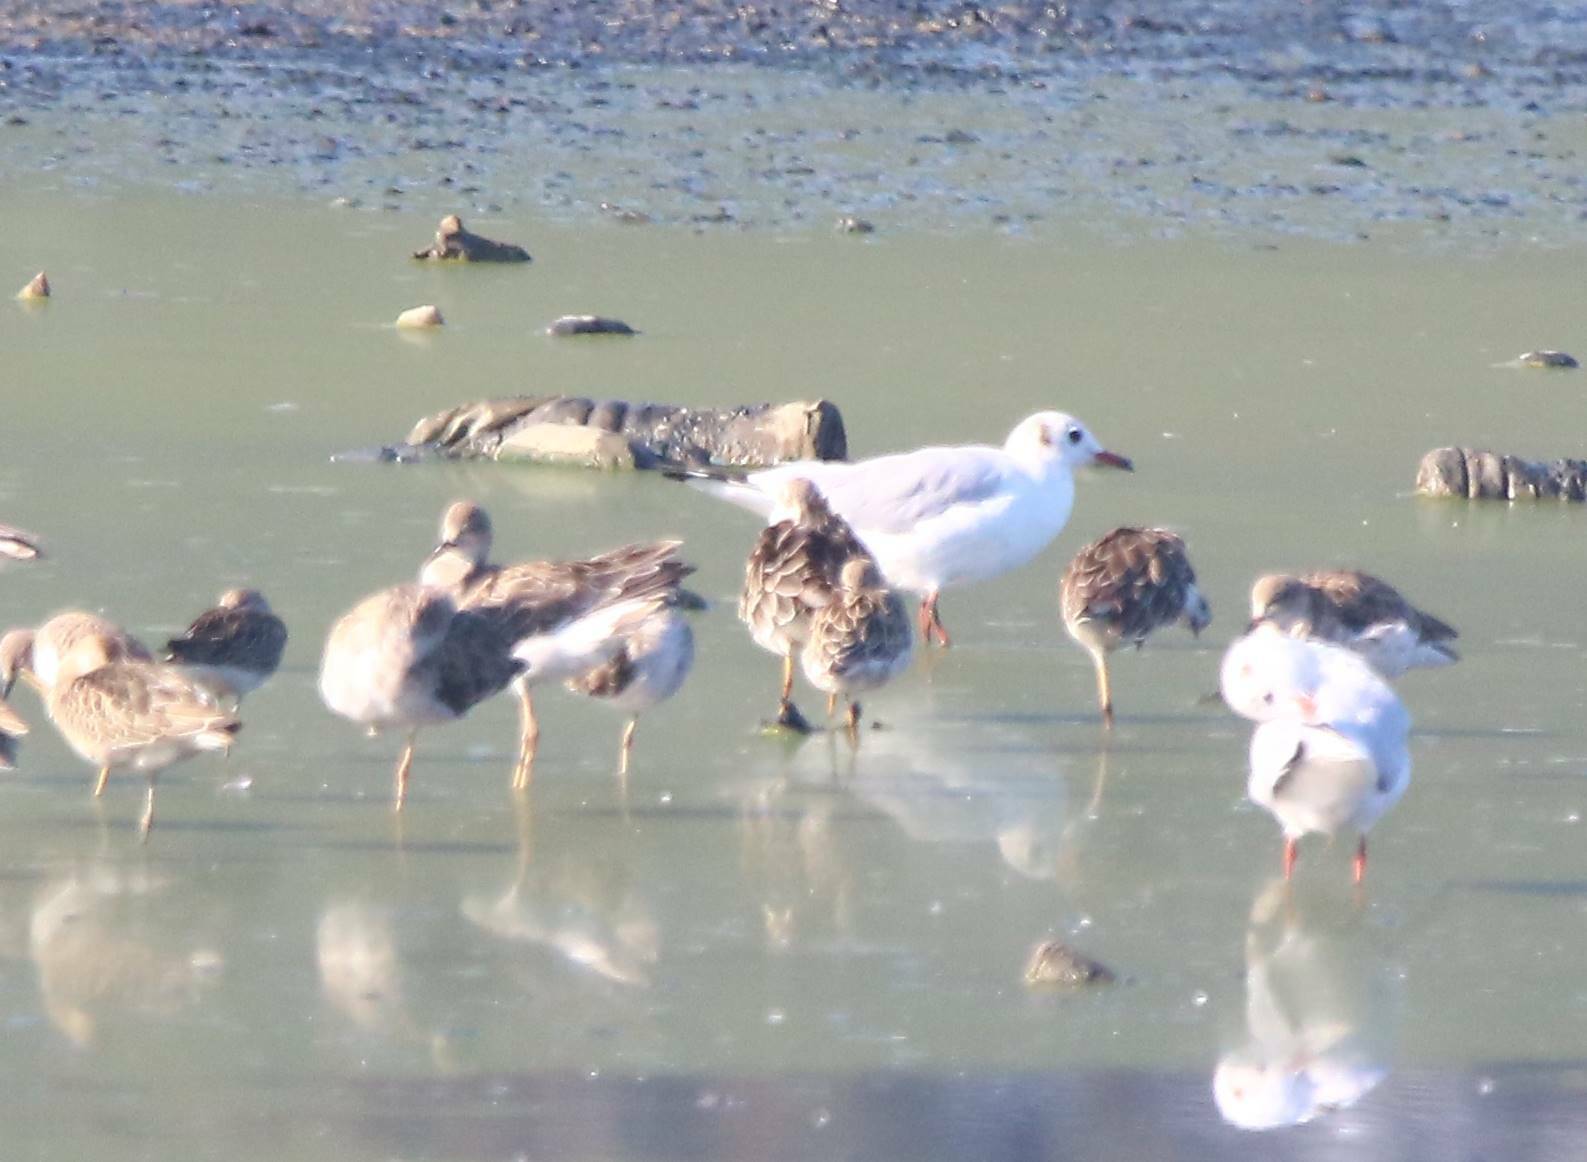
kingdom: Animalia
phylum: Chordata
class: Aves
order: Charadriiformes
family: Scolopacidae
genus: Calidris
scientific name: Calidris pugnax
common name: Ruff
